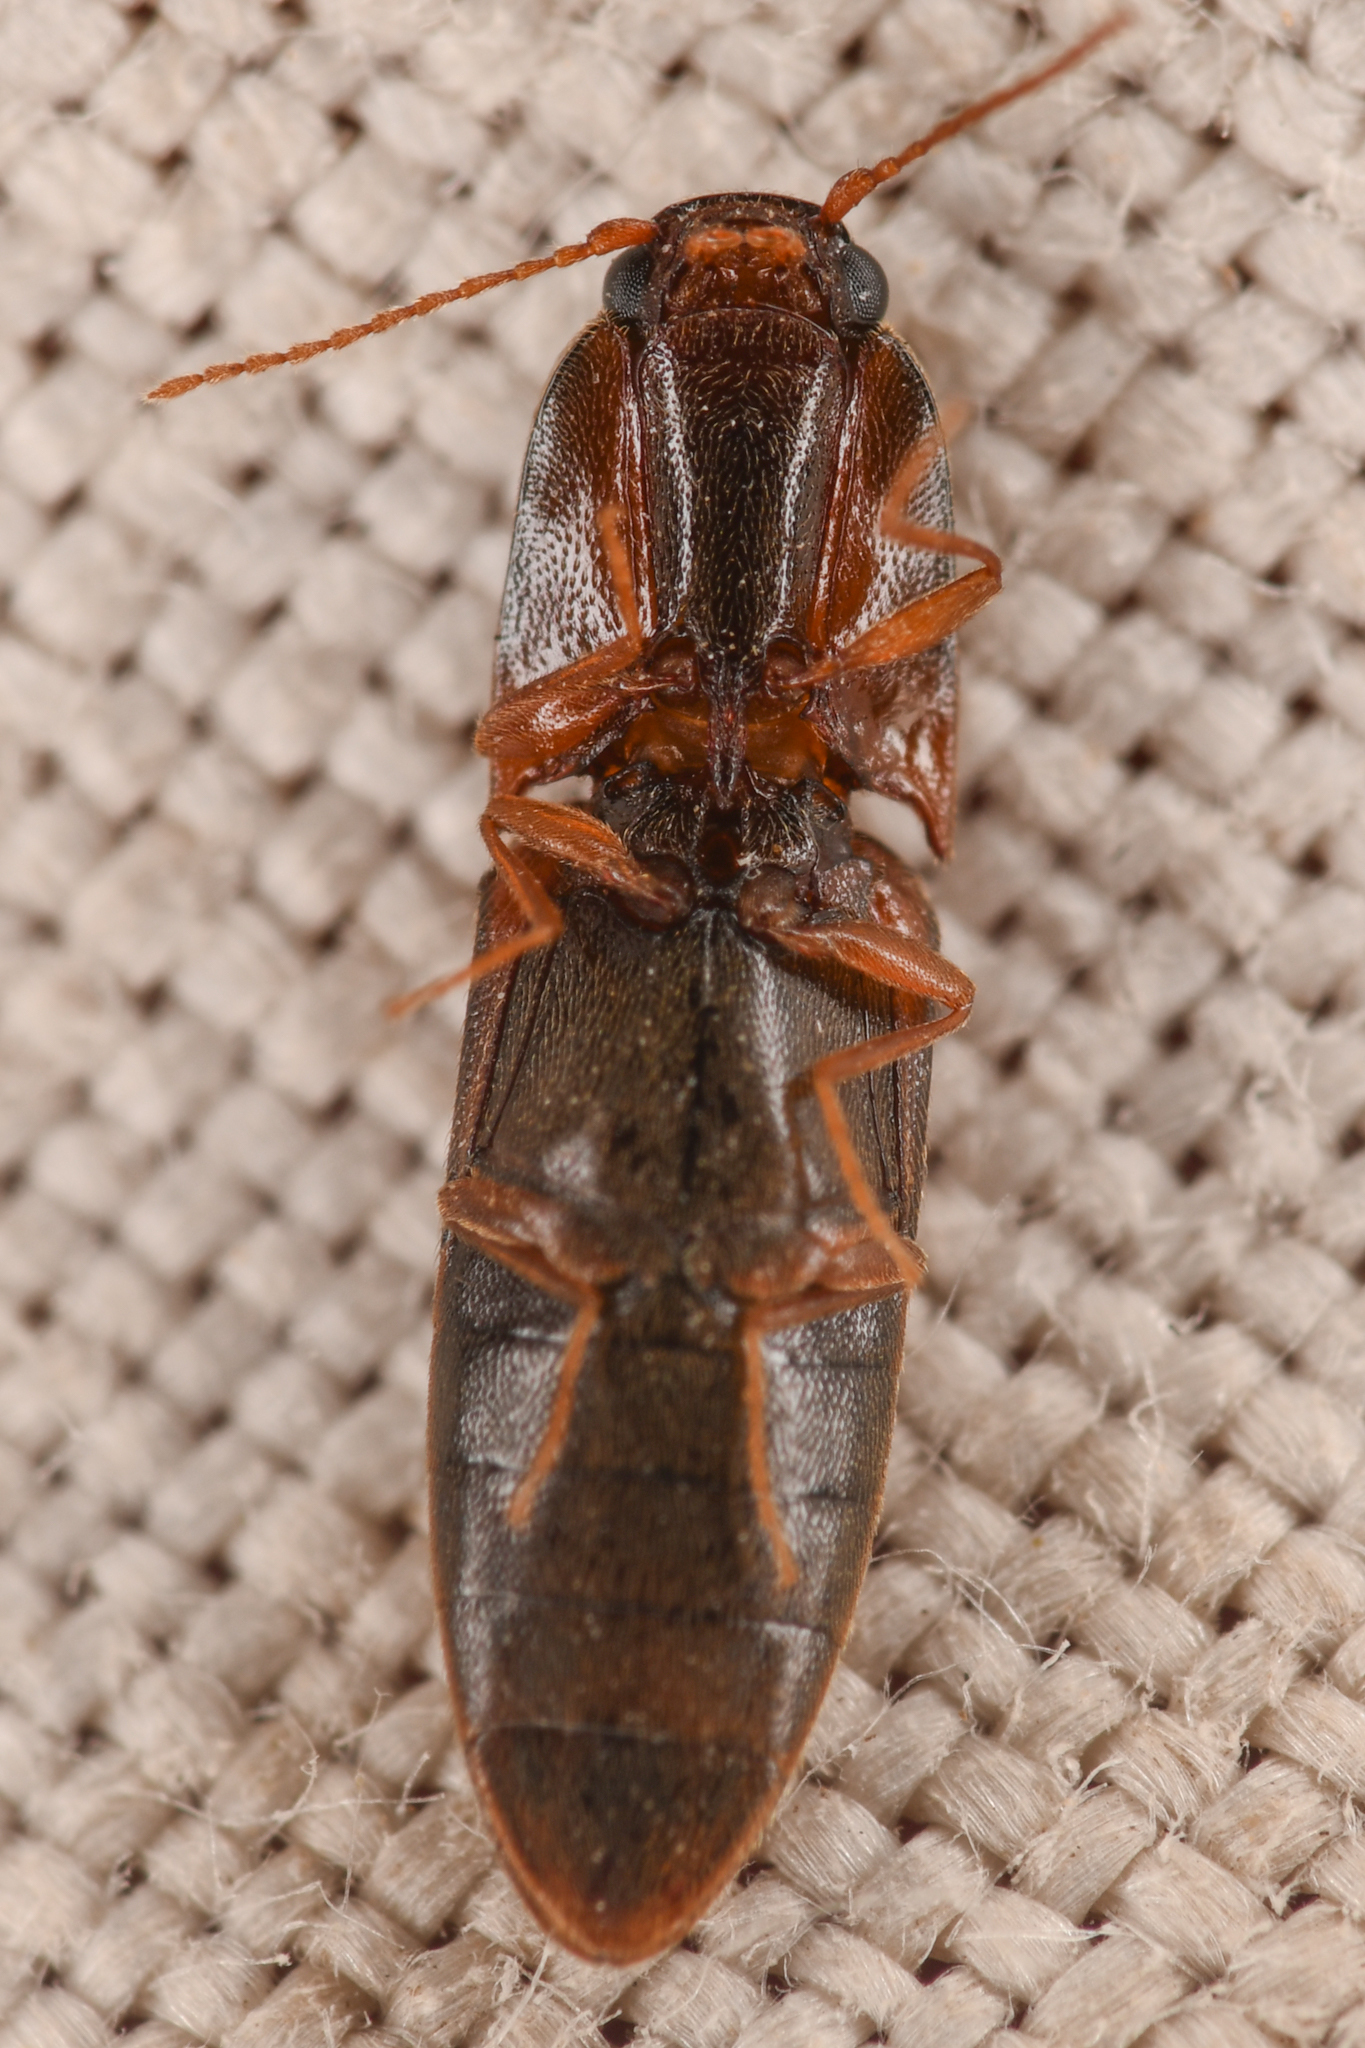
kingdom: Animalia
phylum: Arthropoda
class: Insecta
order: Coleoptera
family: Elateridae
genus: Idolus
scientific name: Idolus debilis
